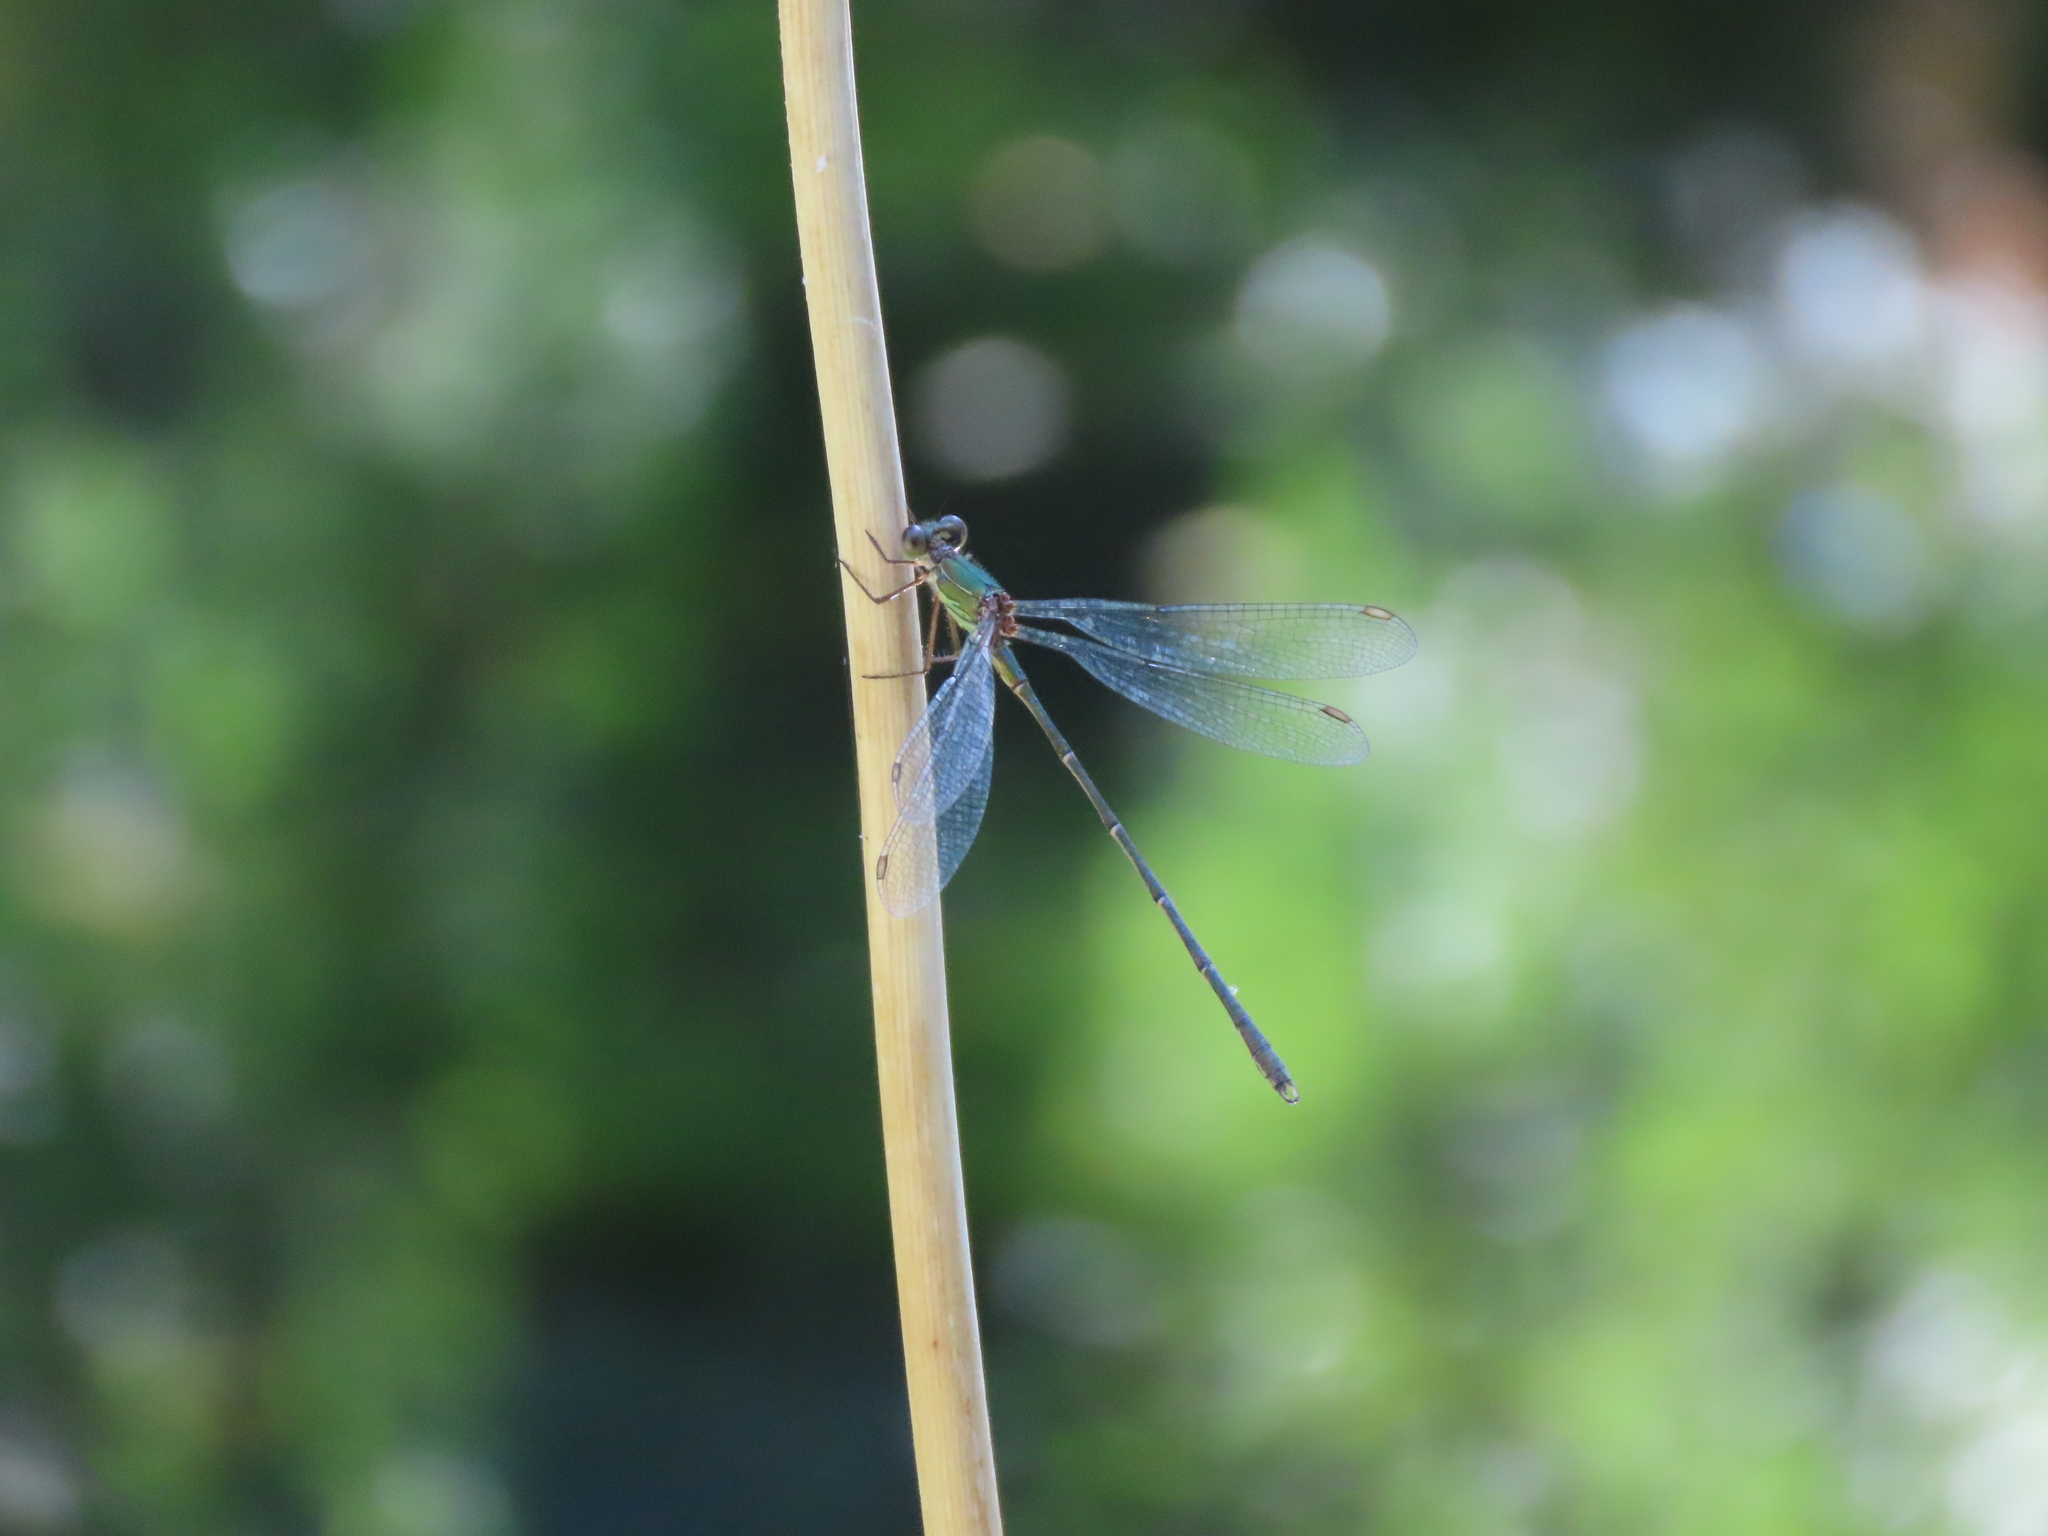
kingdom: Animalia
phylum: Arthropoda
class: Insecta
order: Odonata
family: Lestidae
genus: Chalcolestes
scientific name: Chalcolestes viridis
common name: Green emerald damselfly
